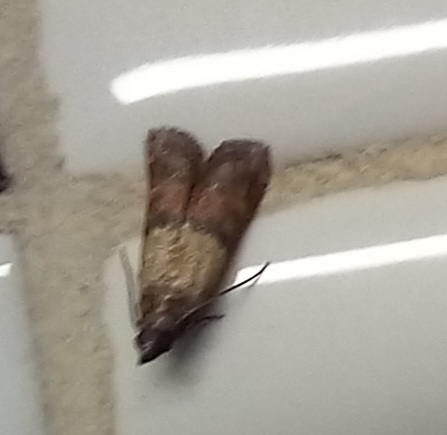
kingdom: Animalia
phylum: Arthropoda
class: Insecta
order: Lepidoptera
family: Pyralidae
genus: Plodia
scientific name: Plodia interpunctella
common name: Indian meal moth
